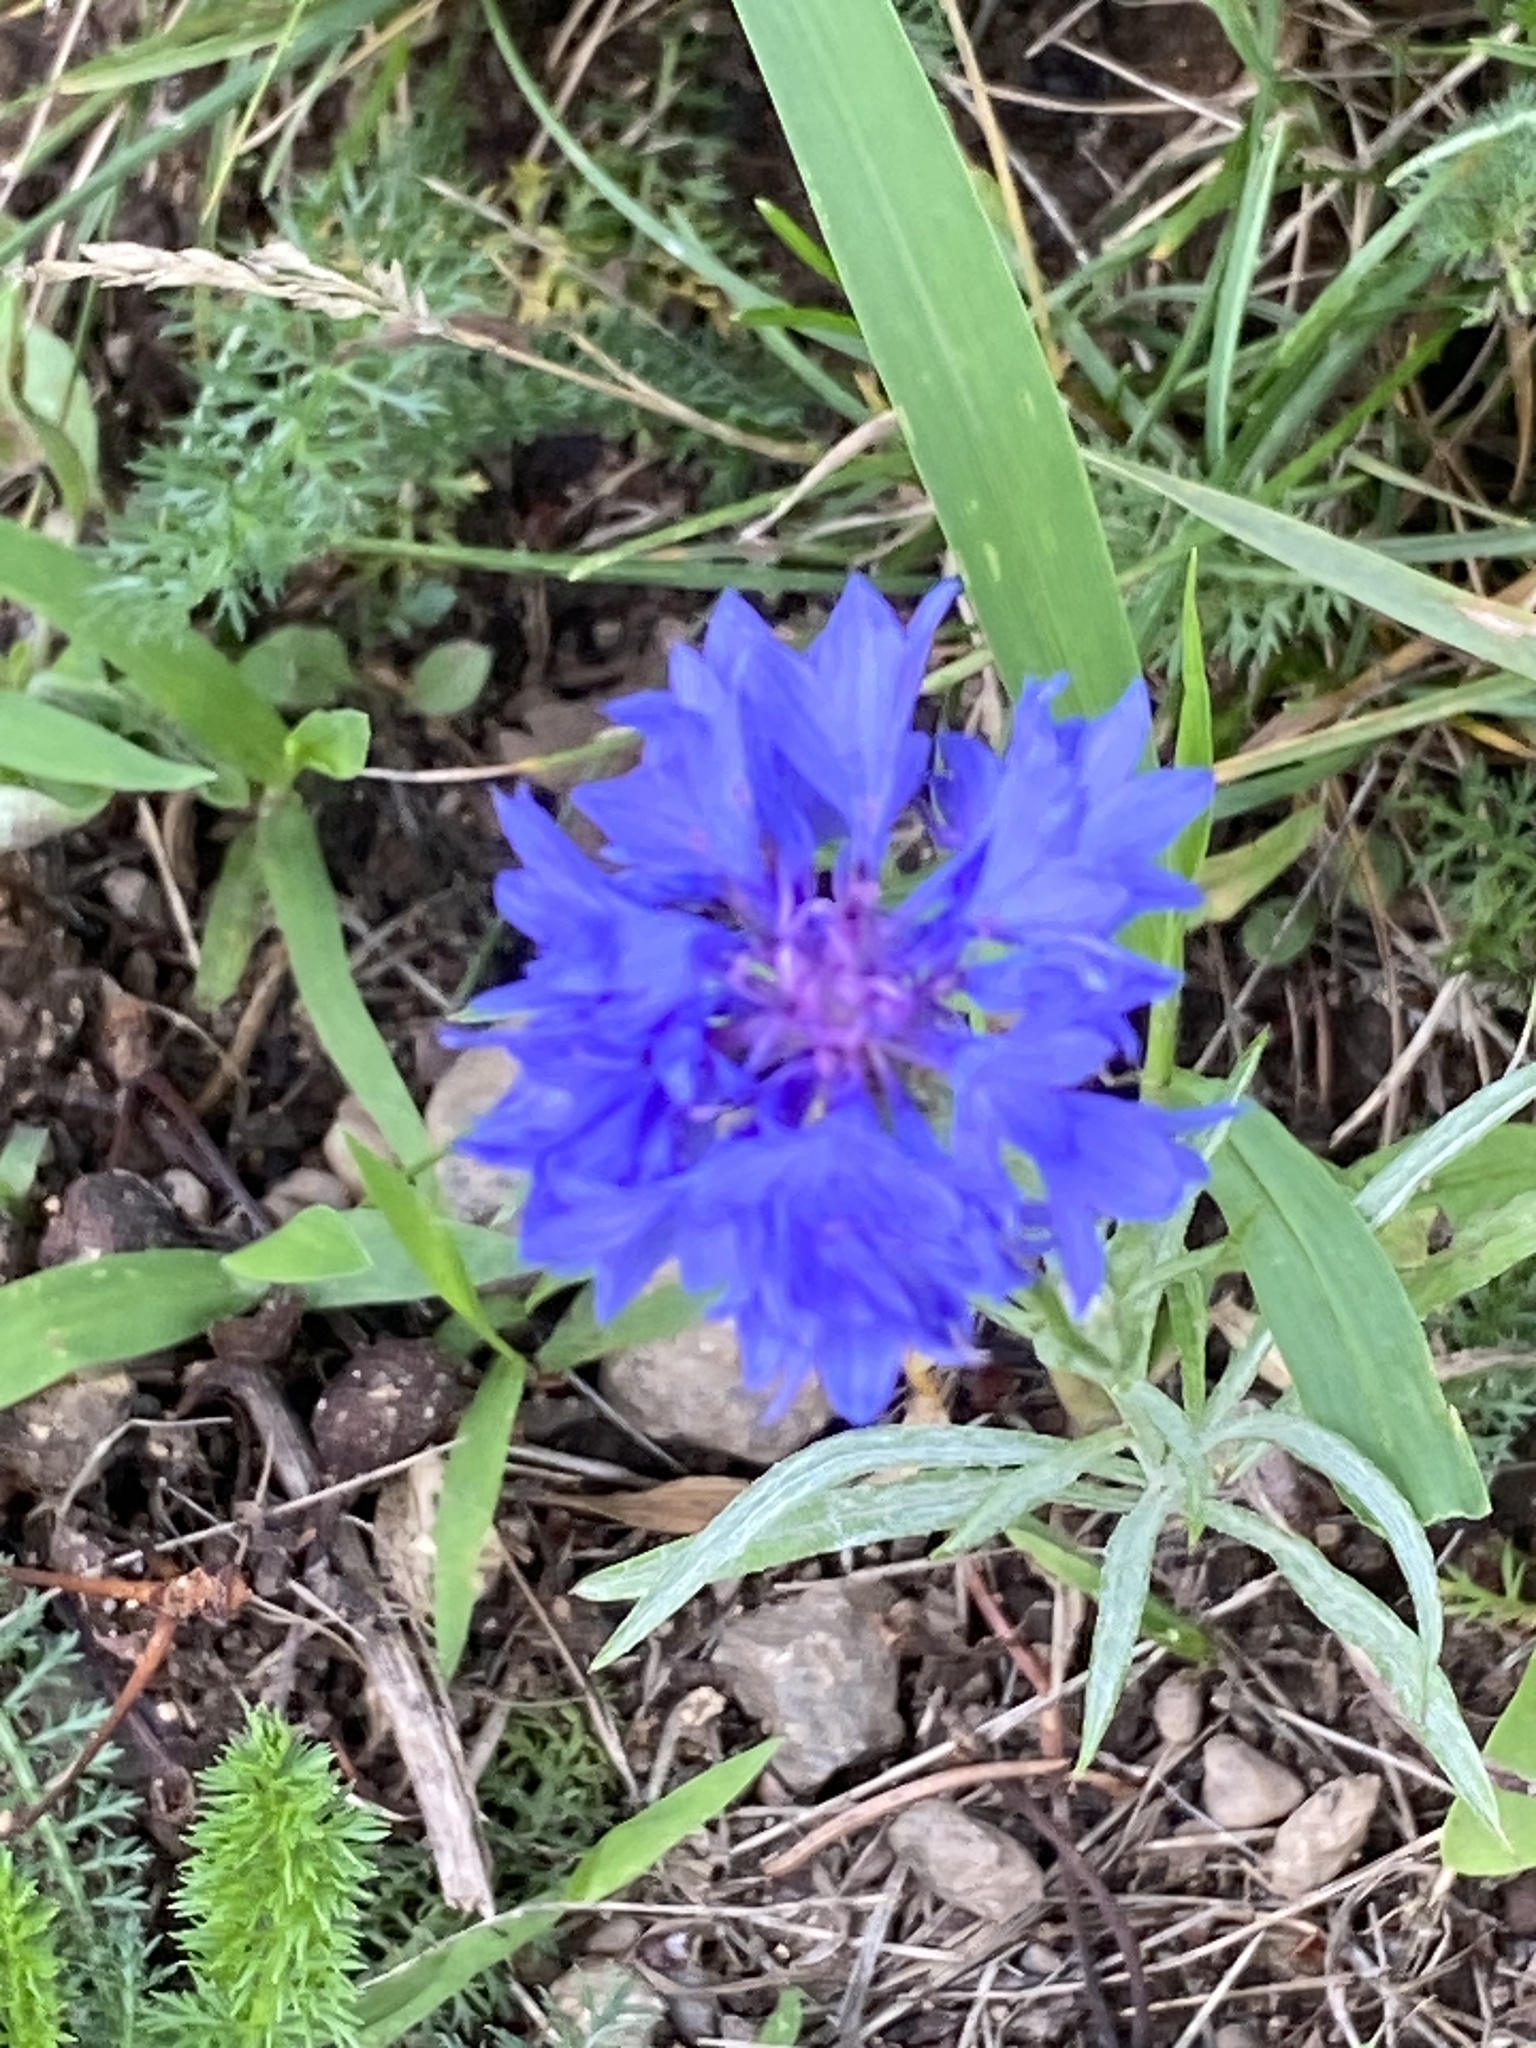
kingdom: Plantae
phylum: Tracheophyta
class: Magnoliopsida
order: Asterales
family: Asteraceae
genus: Centaurea
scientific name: Centaurea cyanus
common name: Cornflower
